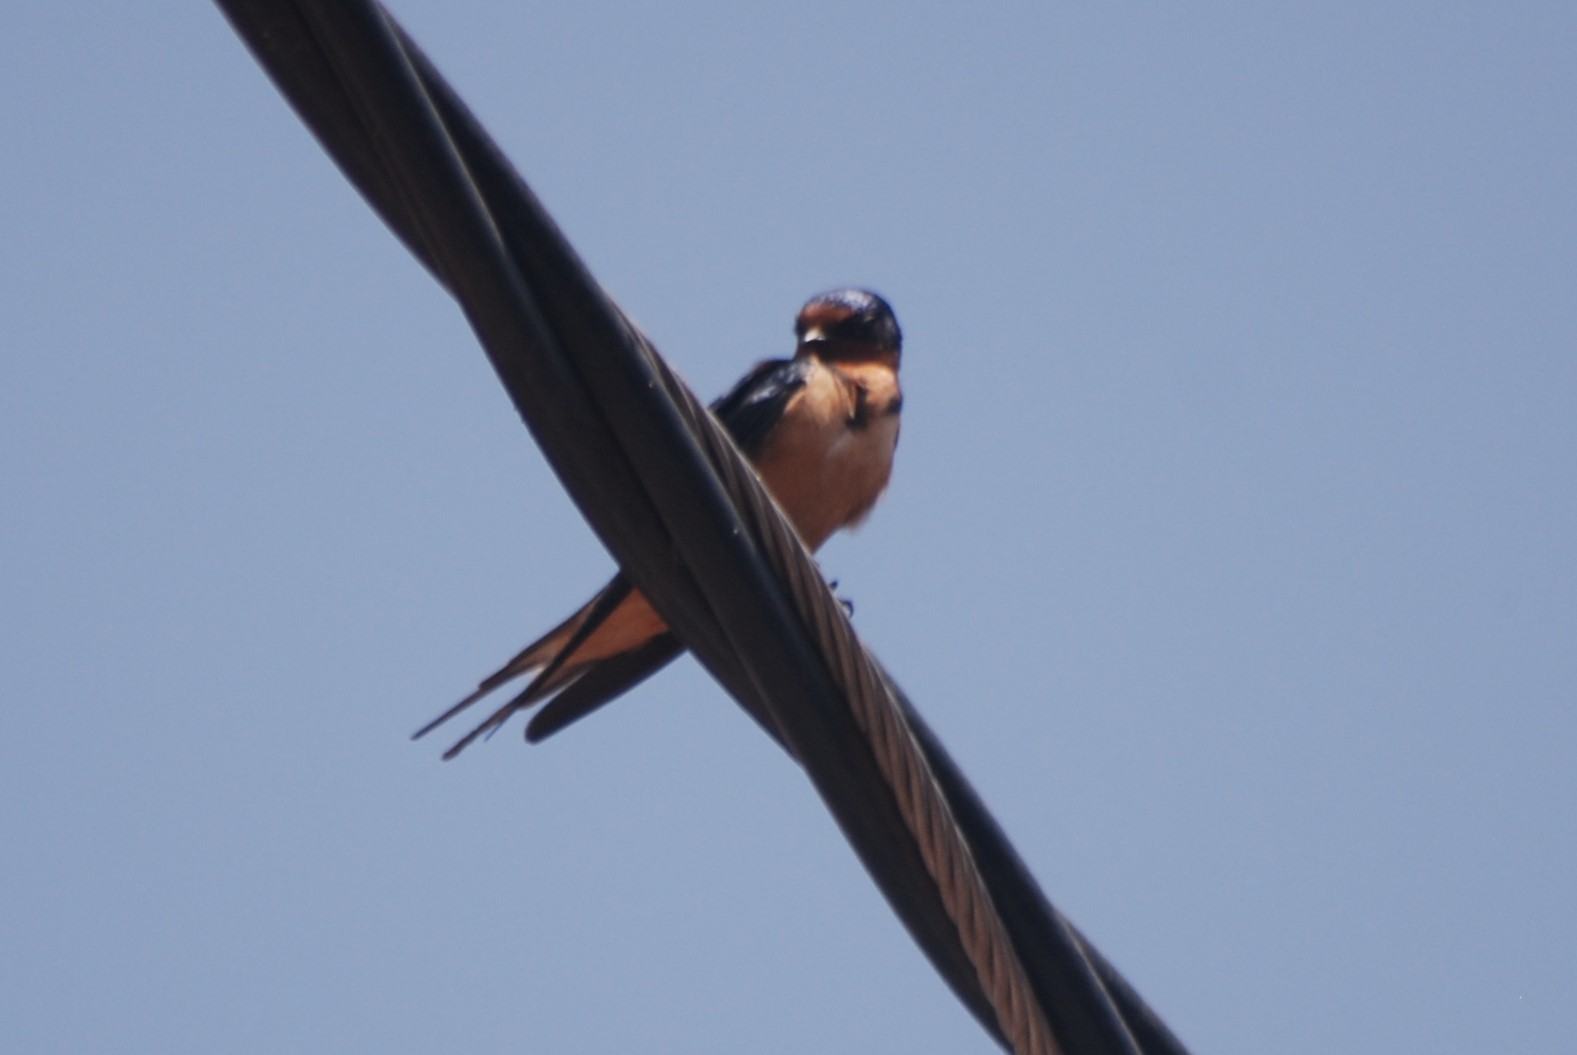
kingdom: Animalia
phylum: Chordata
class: Aves
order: Passeriformes
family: Hirundinidae
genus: Hirundo
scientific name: Hirundo rustica
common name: Barn swallow
